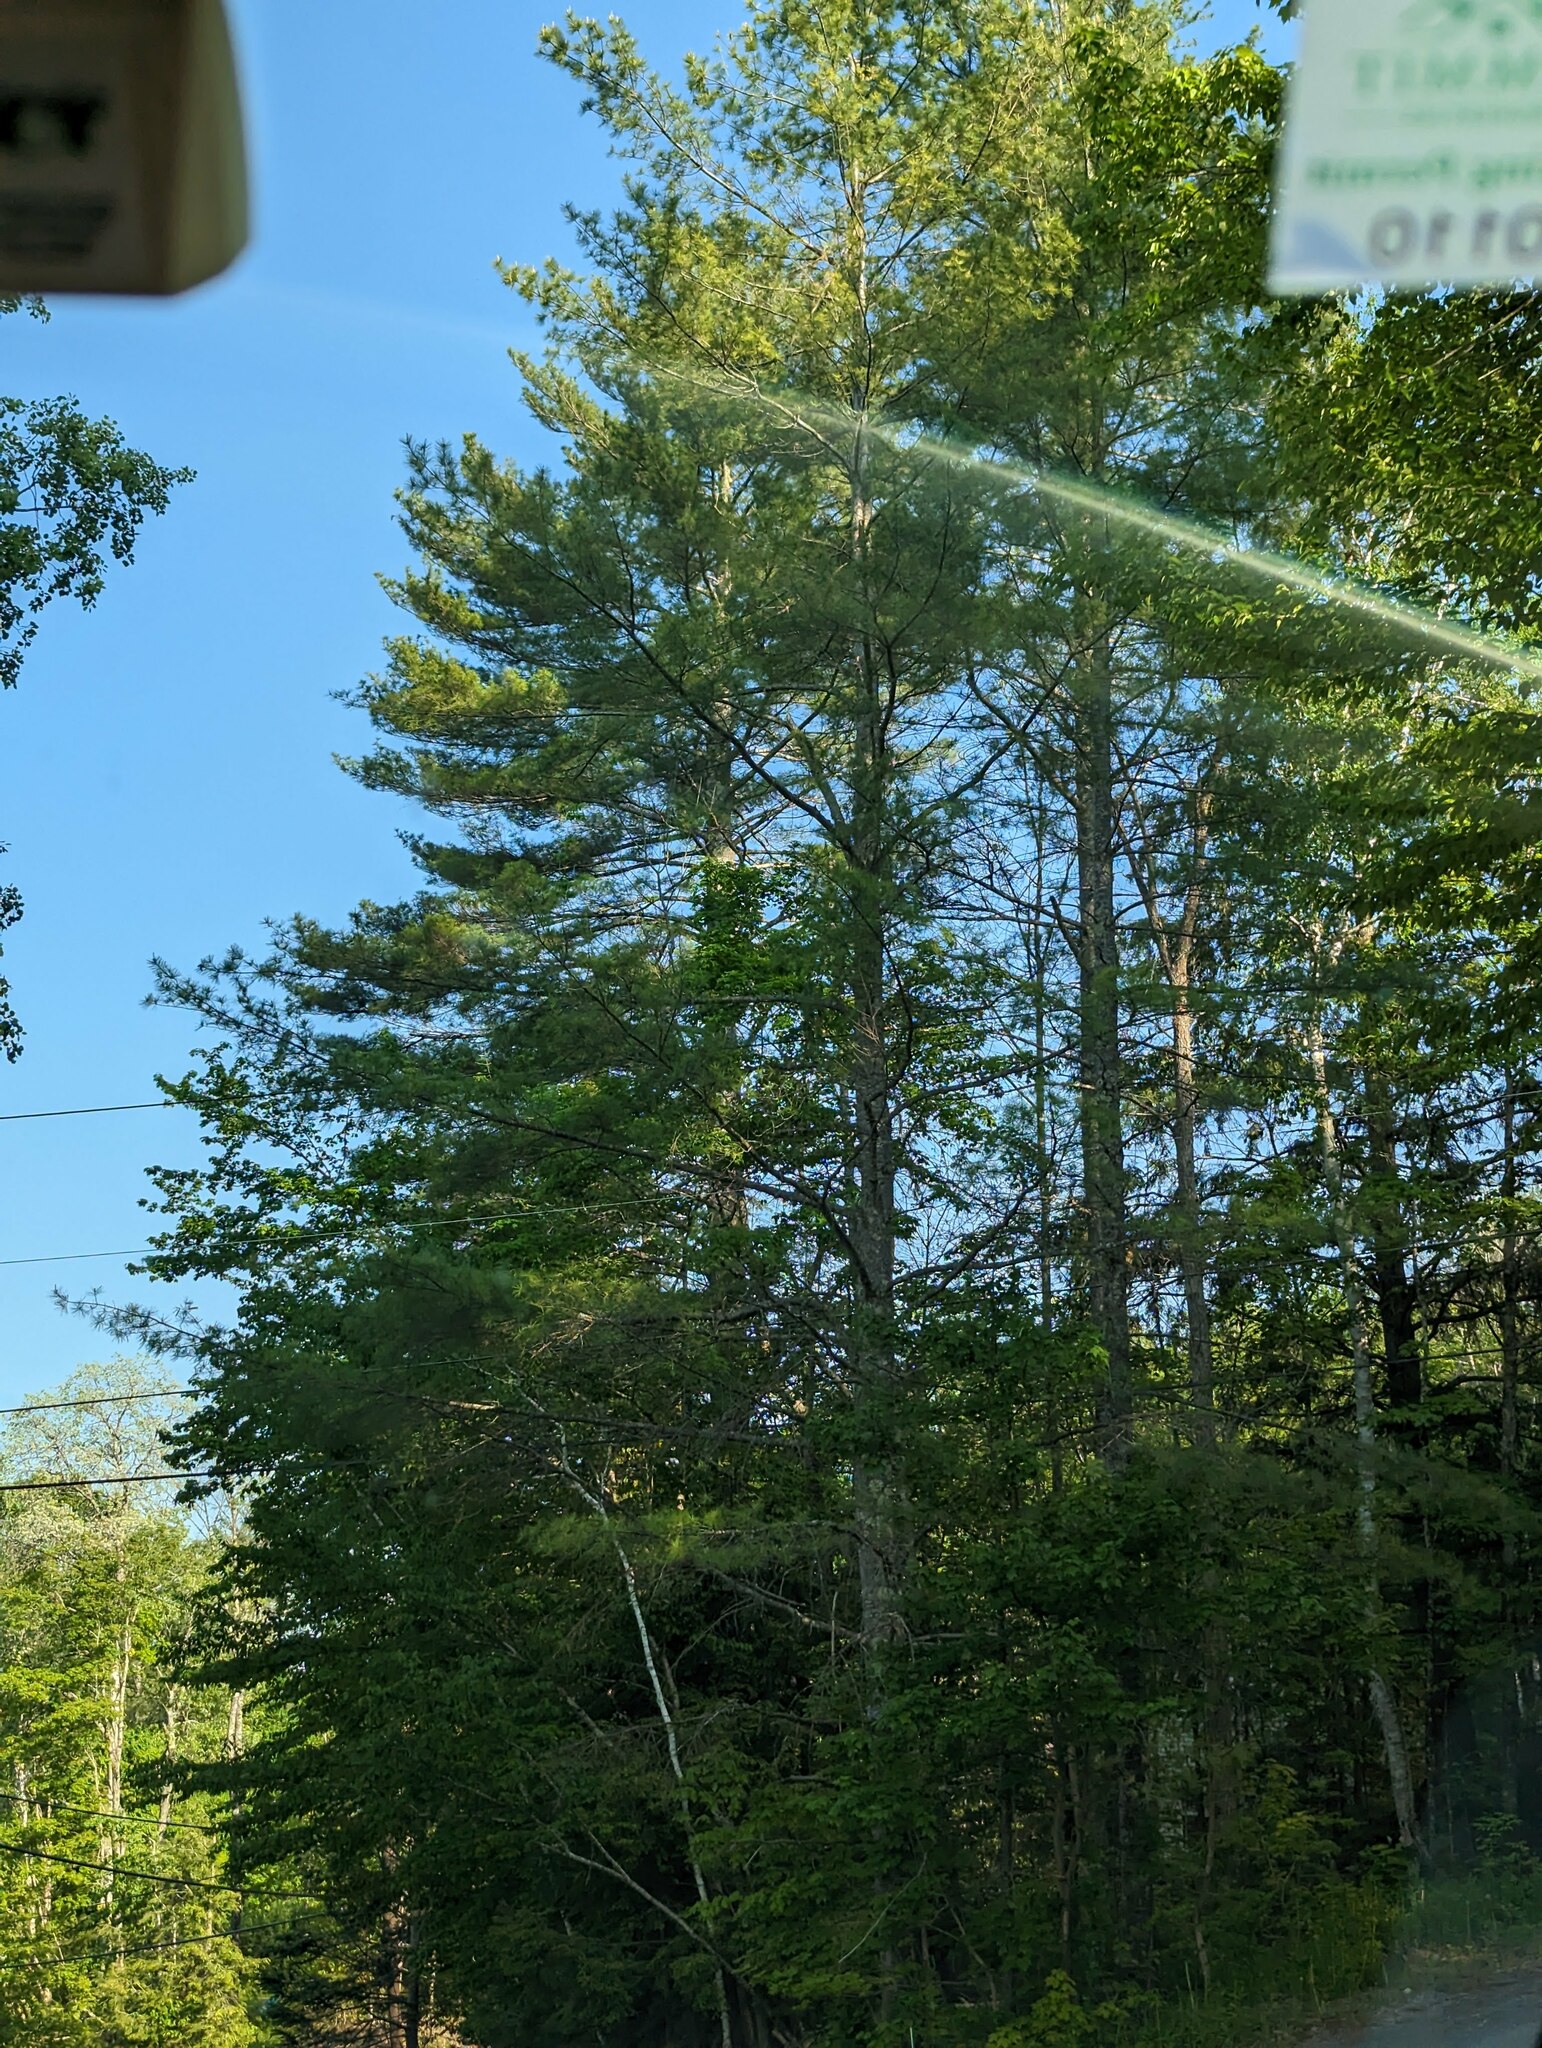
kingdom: Plantae
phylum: Tracheophyta
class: Pinopsida
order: Pinales
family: Pinaceae
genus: Pinus
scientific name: Pinus strobus
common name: Weymouth pine
